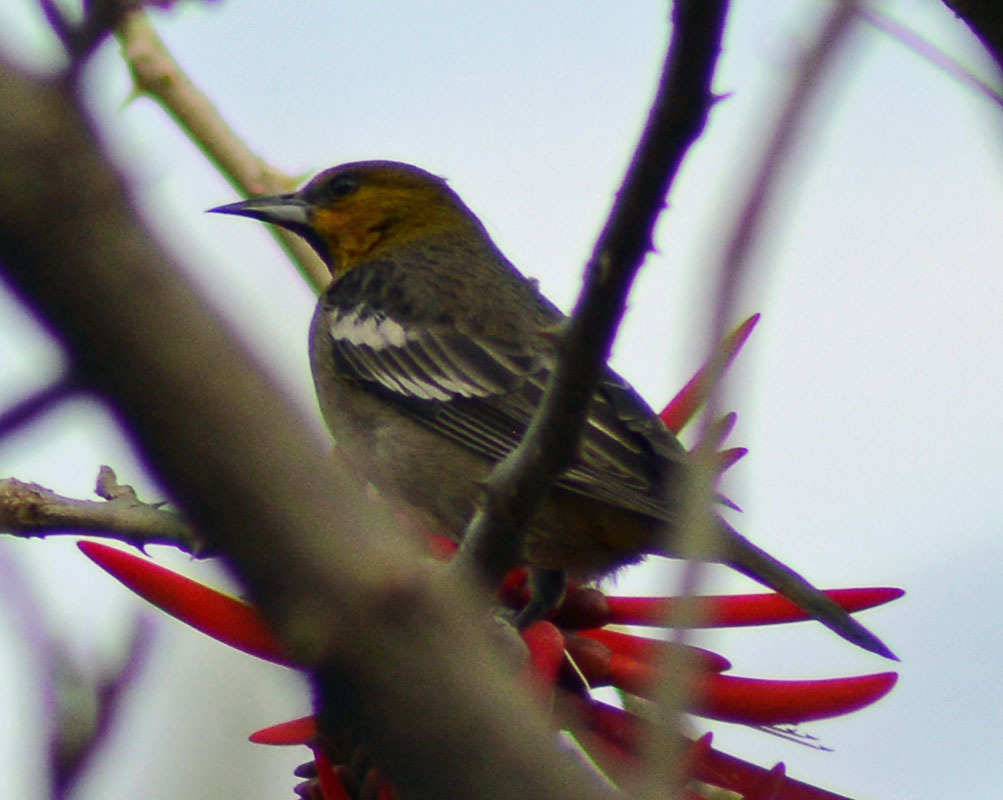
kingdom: Animalia
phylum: Chordata
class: Aves
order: Passeriformes
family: Icteridae
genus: Icterus
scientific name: Icterus bullockii
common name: Bullock's oriole
